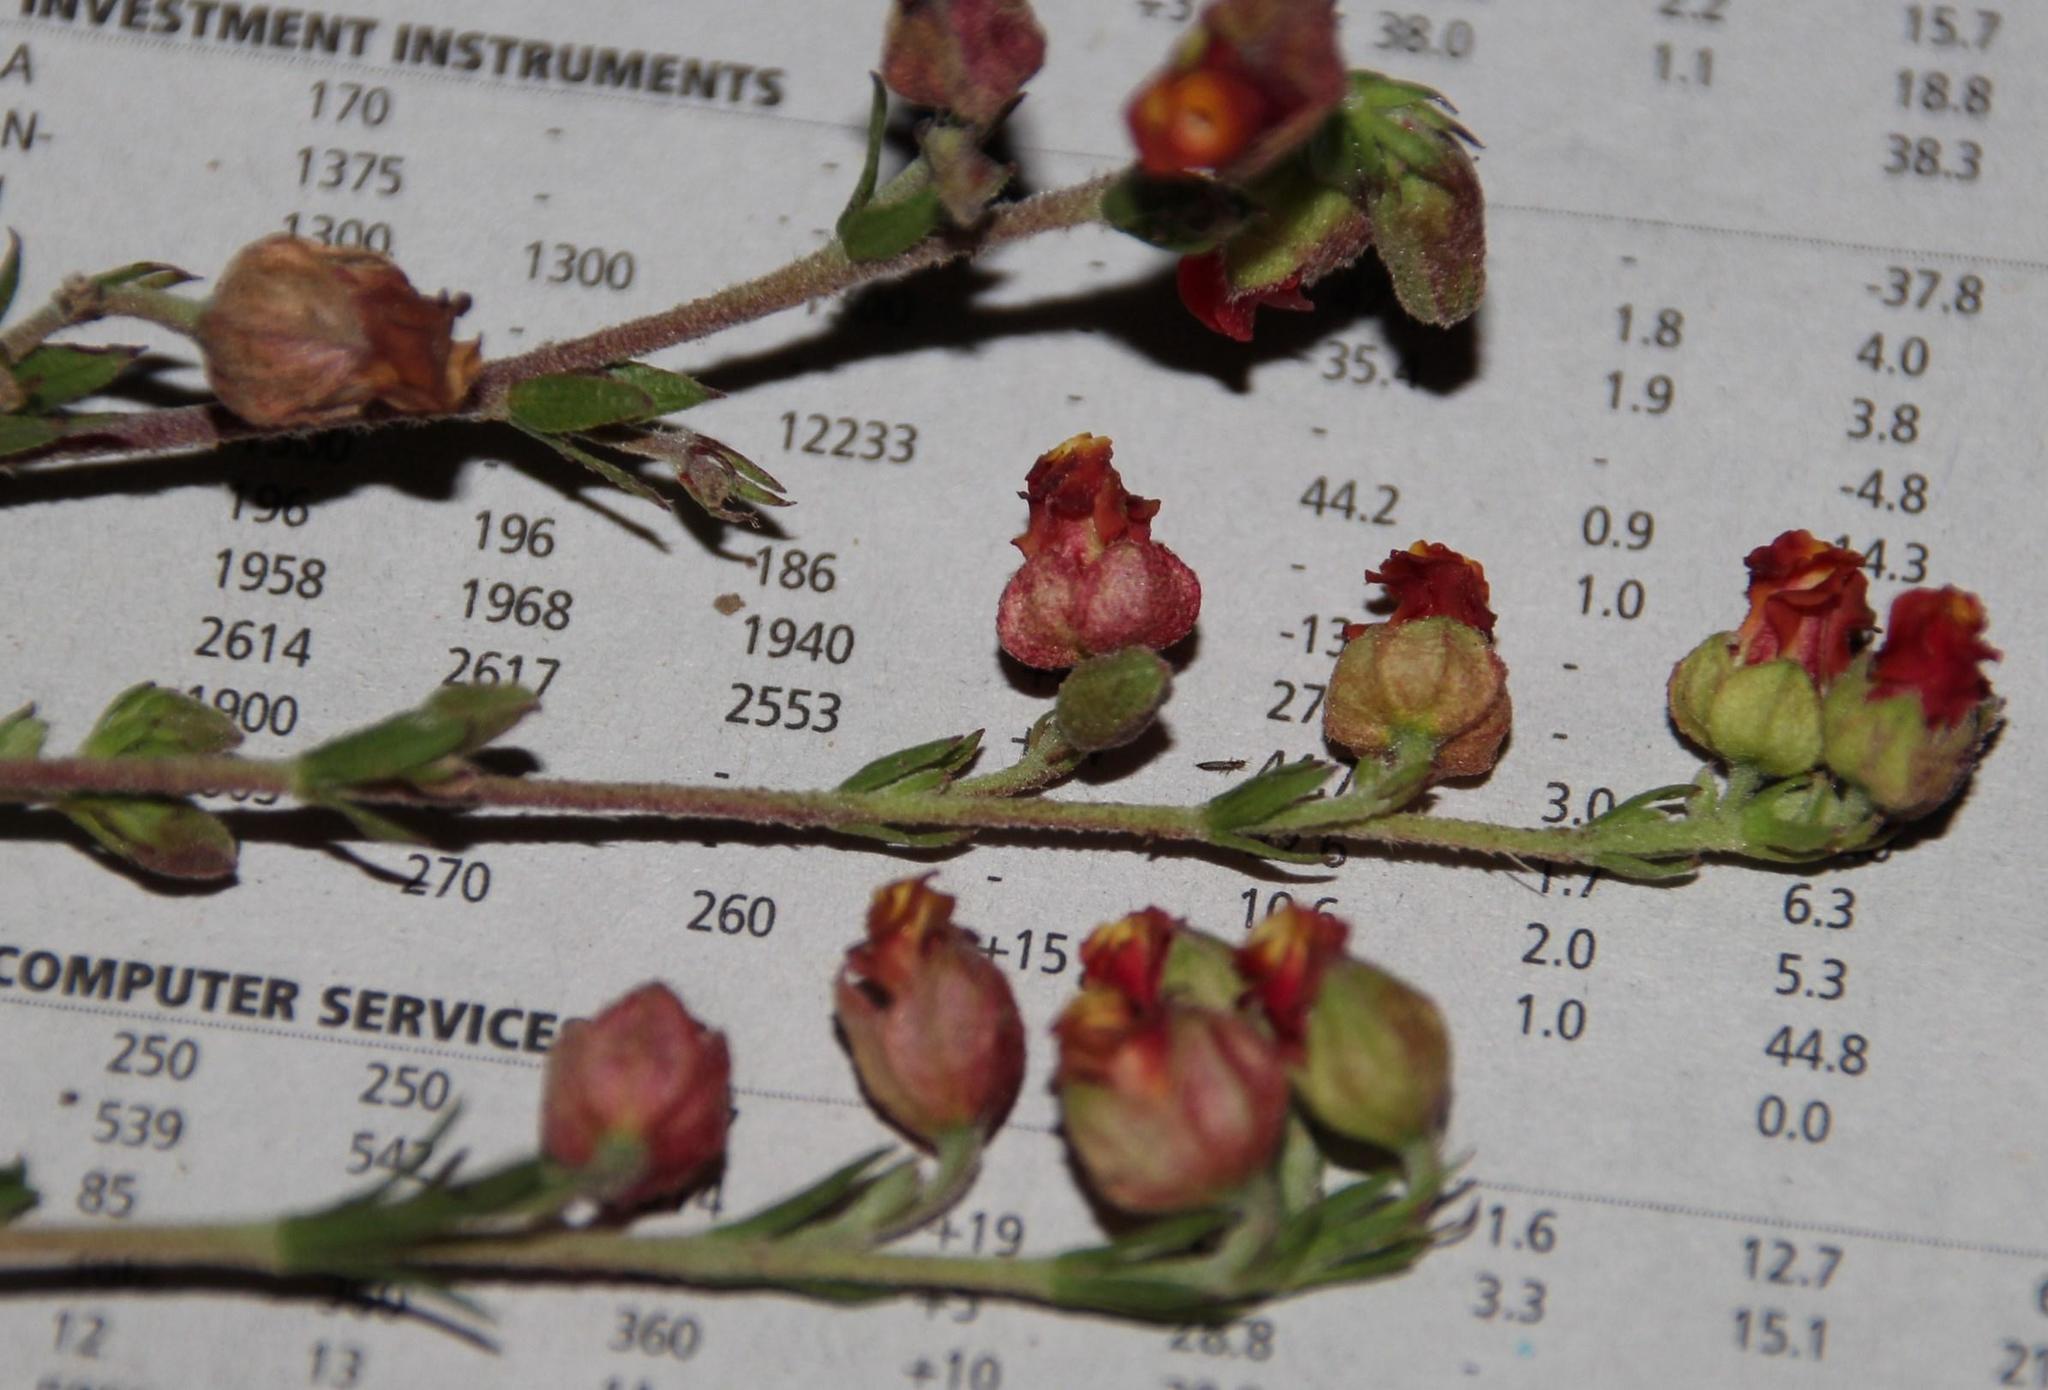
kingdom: Plantae
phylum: Tracheophyta
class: Magnoliopsida
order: Malvales
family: Malvaceae
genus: Hermannia
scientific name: Hermannia flammea
